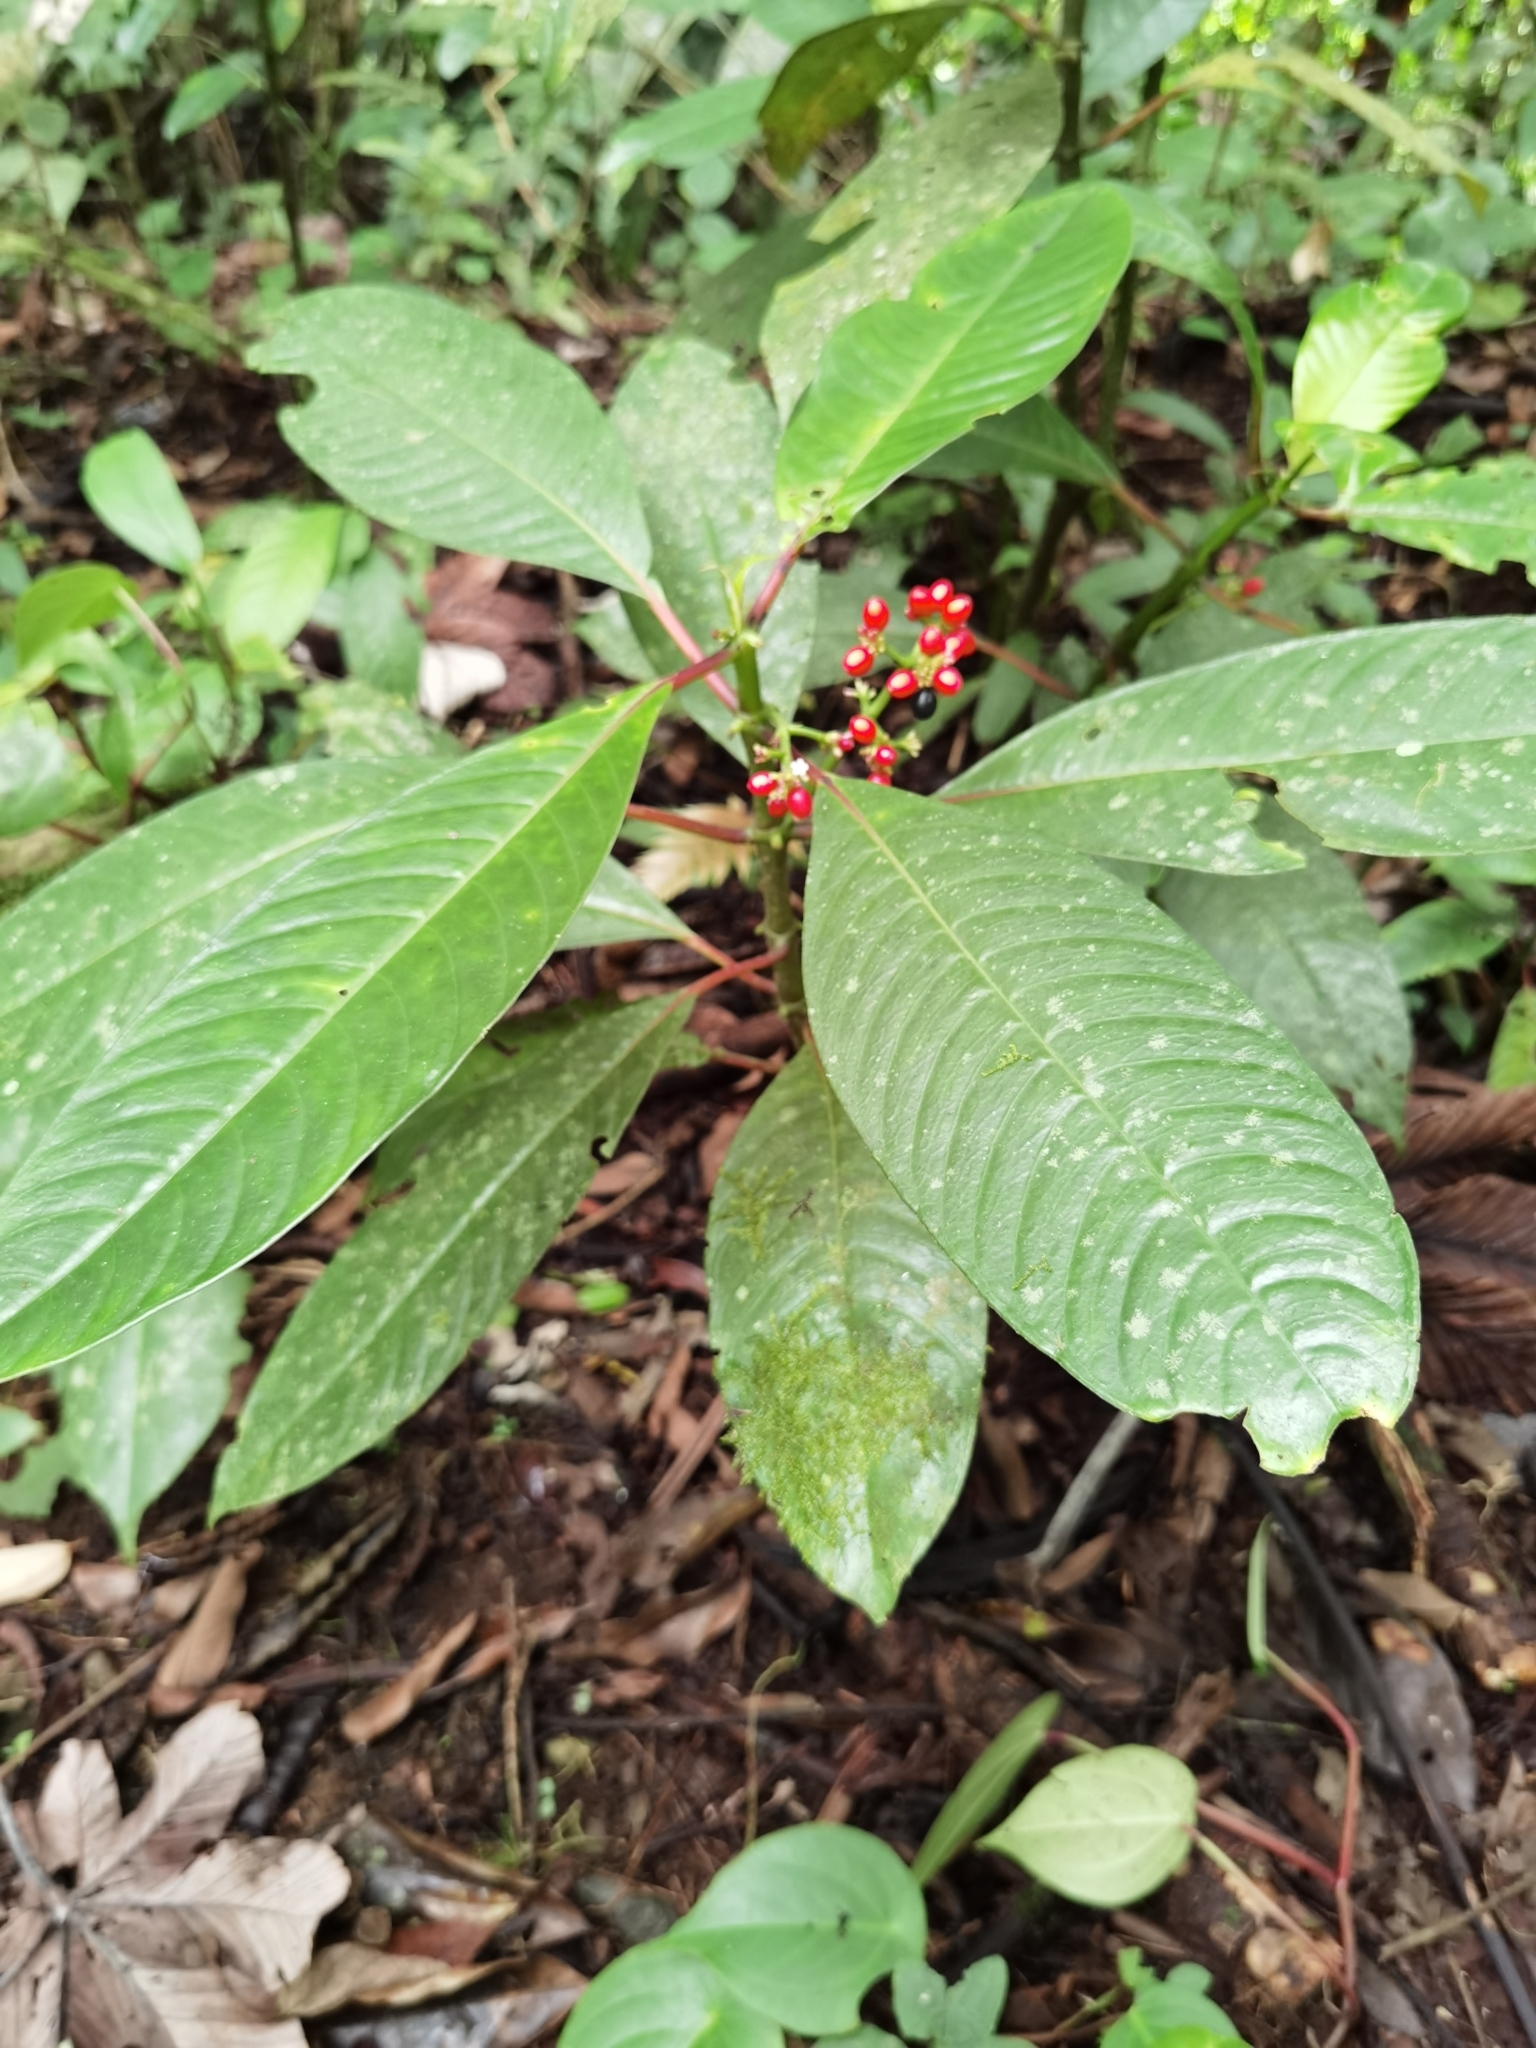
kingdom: Plantae
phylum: Tracheophyta
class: Magnoliopsida
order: Gentianales
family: Rubiaceae
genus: Notopleura
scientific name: Notopleura uliginosa
